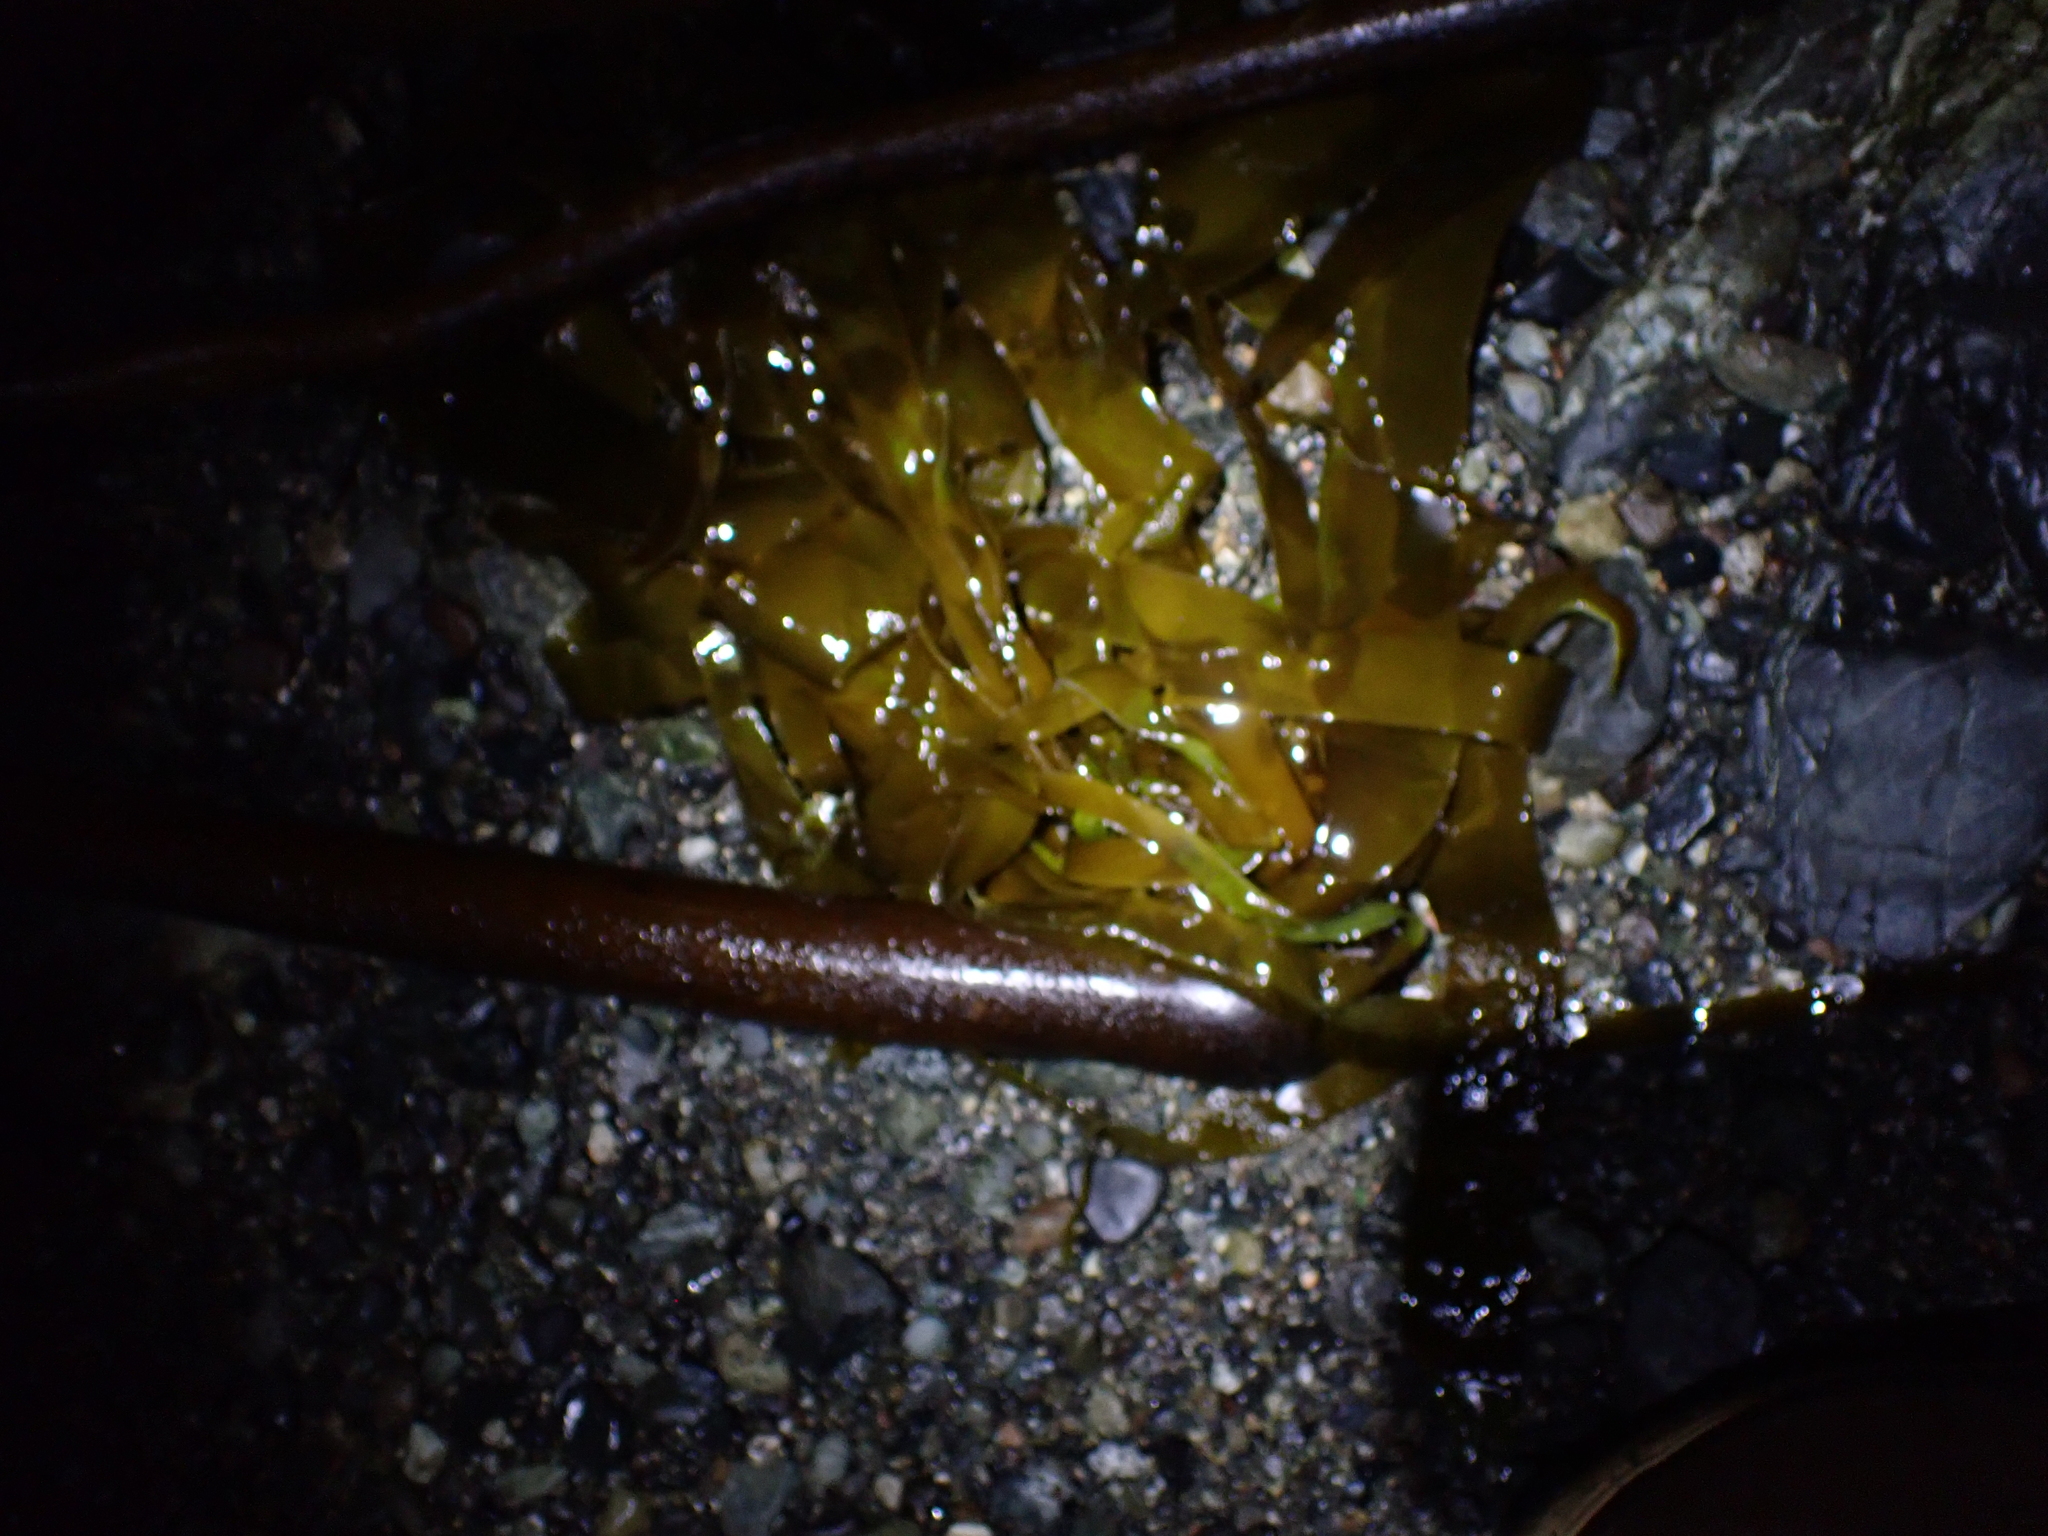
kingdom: Chromista
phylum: Ochrophyta
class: Phaeophyceae
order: Laminariales
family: Laminariaceae
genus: Nereocystis
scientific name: Nereocystis luetkeana
